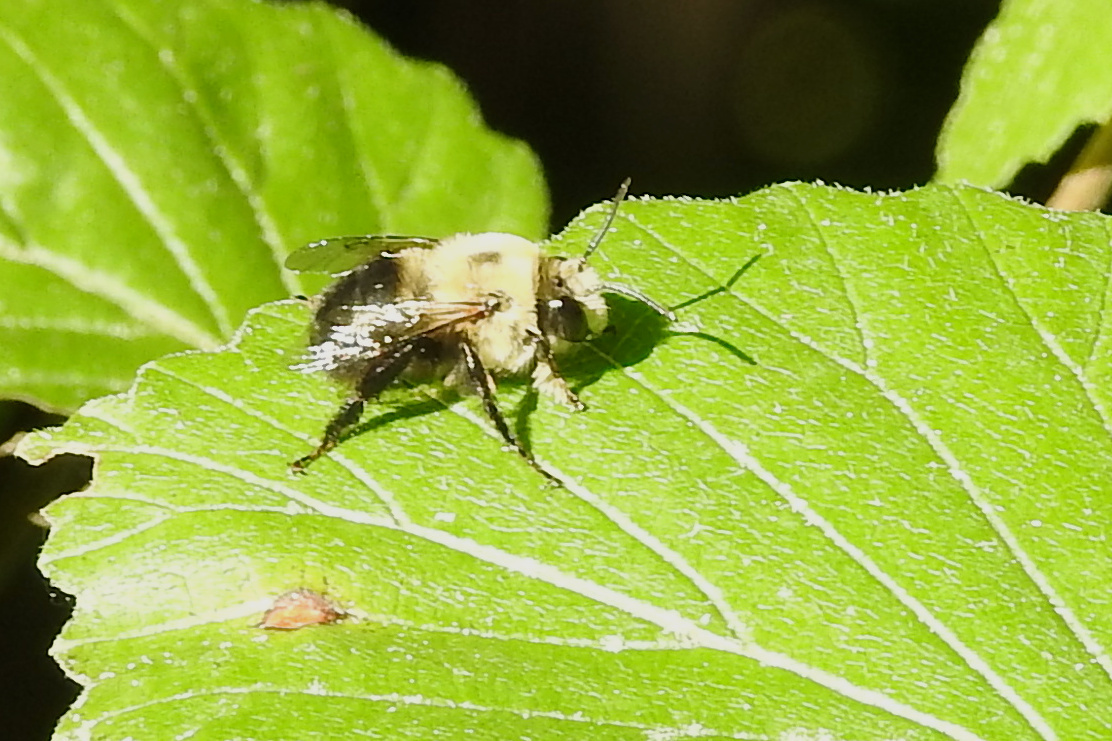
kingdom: Animalia
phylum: Arthropoda
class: Insecta
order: Hymenoptera
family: Apidae
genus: Anthophora
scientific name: Anthophora abrupta
